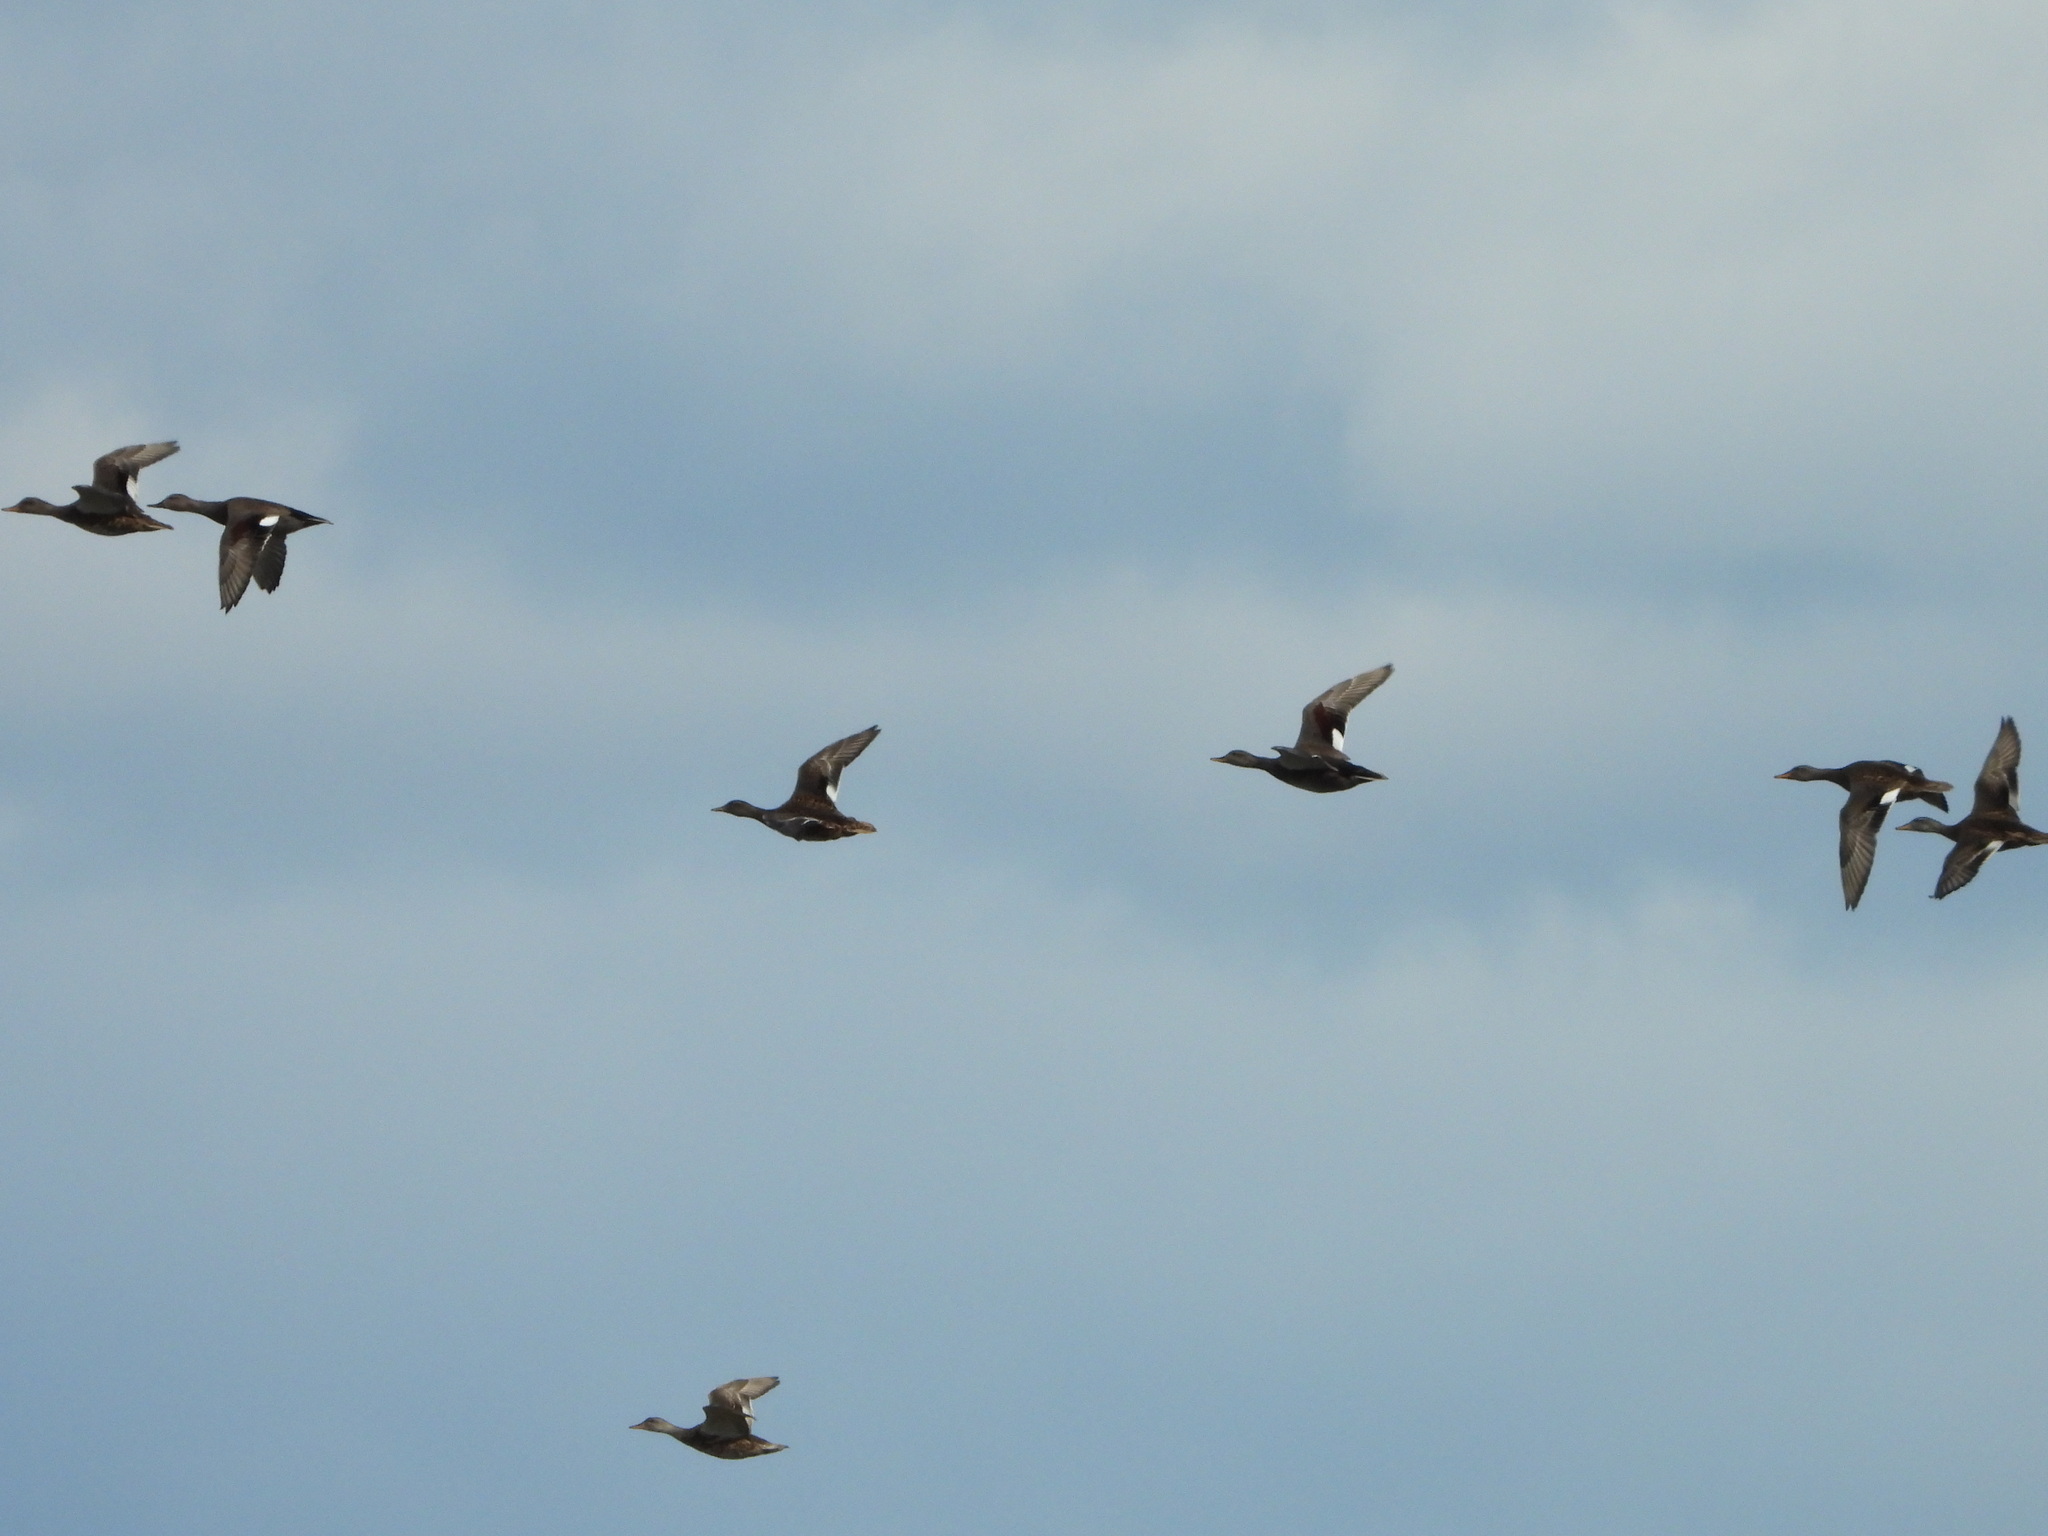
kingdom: Animalia
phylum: Chordata
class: Aves
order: Anseriformes
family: Anatidae
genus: Mareca
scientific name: Mareca penelope
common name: Eurasian wigeon
